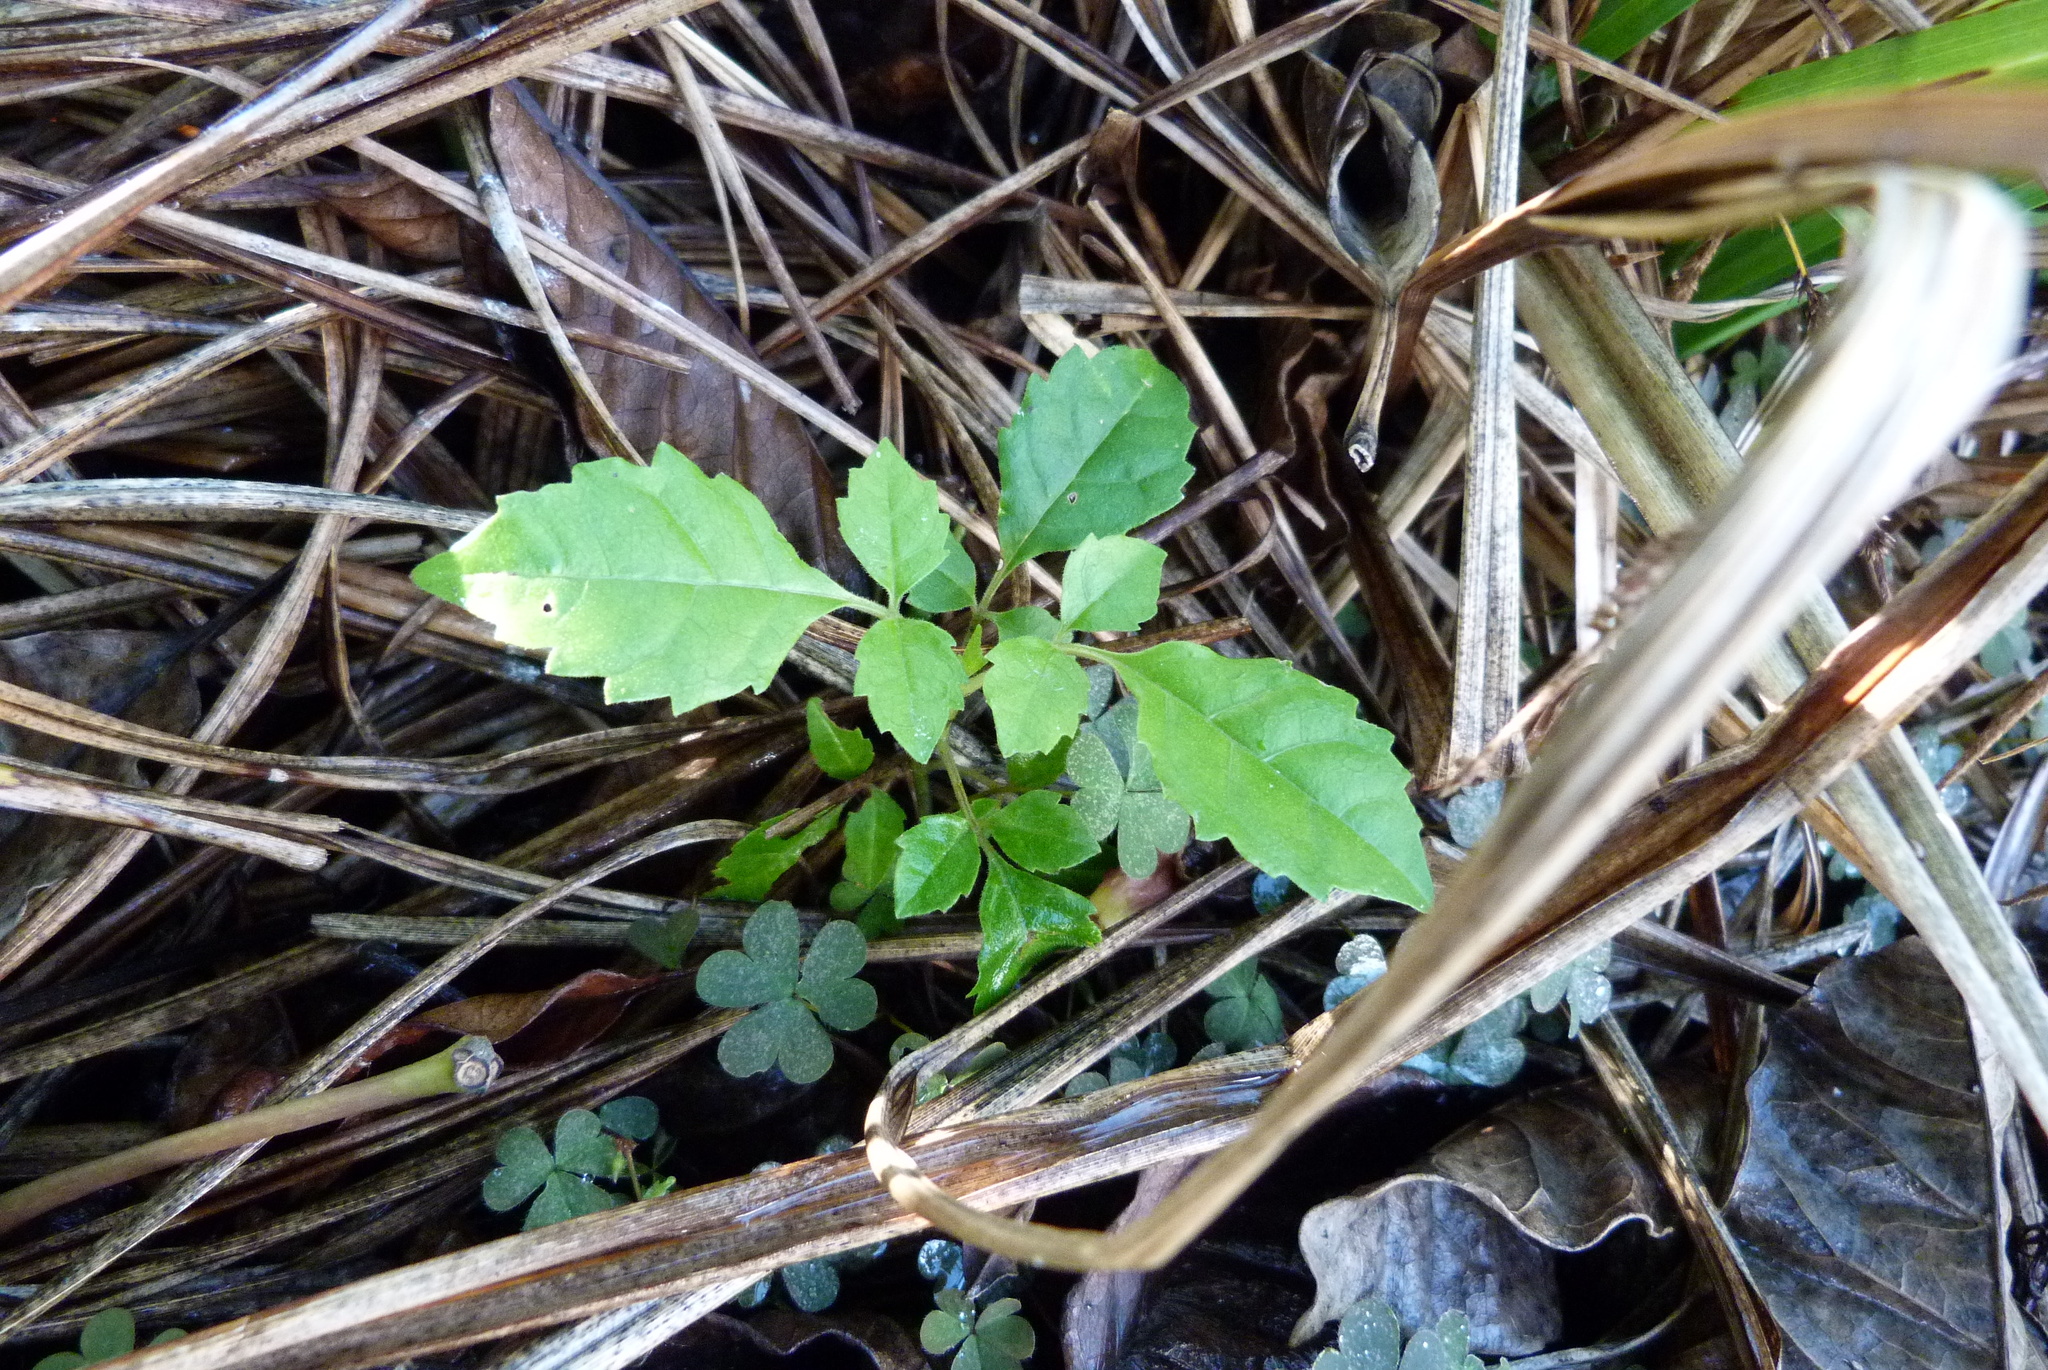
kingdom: Plantae
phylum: Tracheophyta
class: Magnoliopsida
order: Lamiales
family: Lamiaceae
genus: Vitex
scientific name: Vitex lucens
